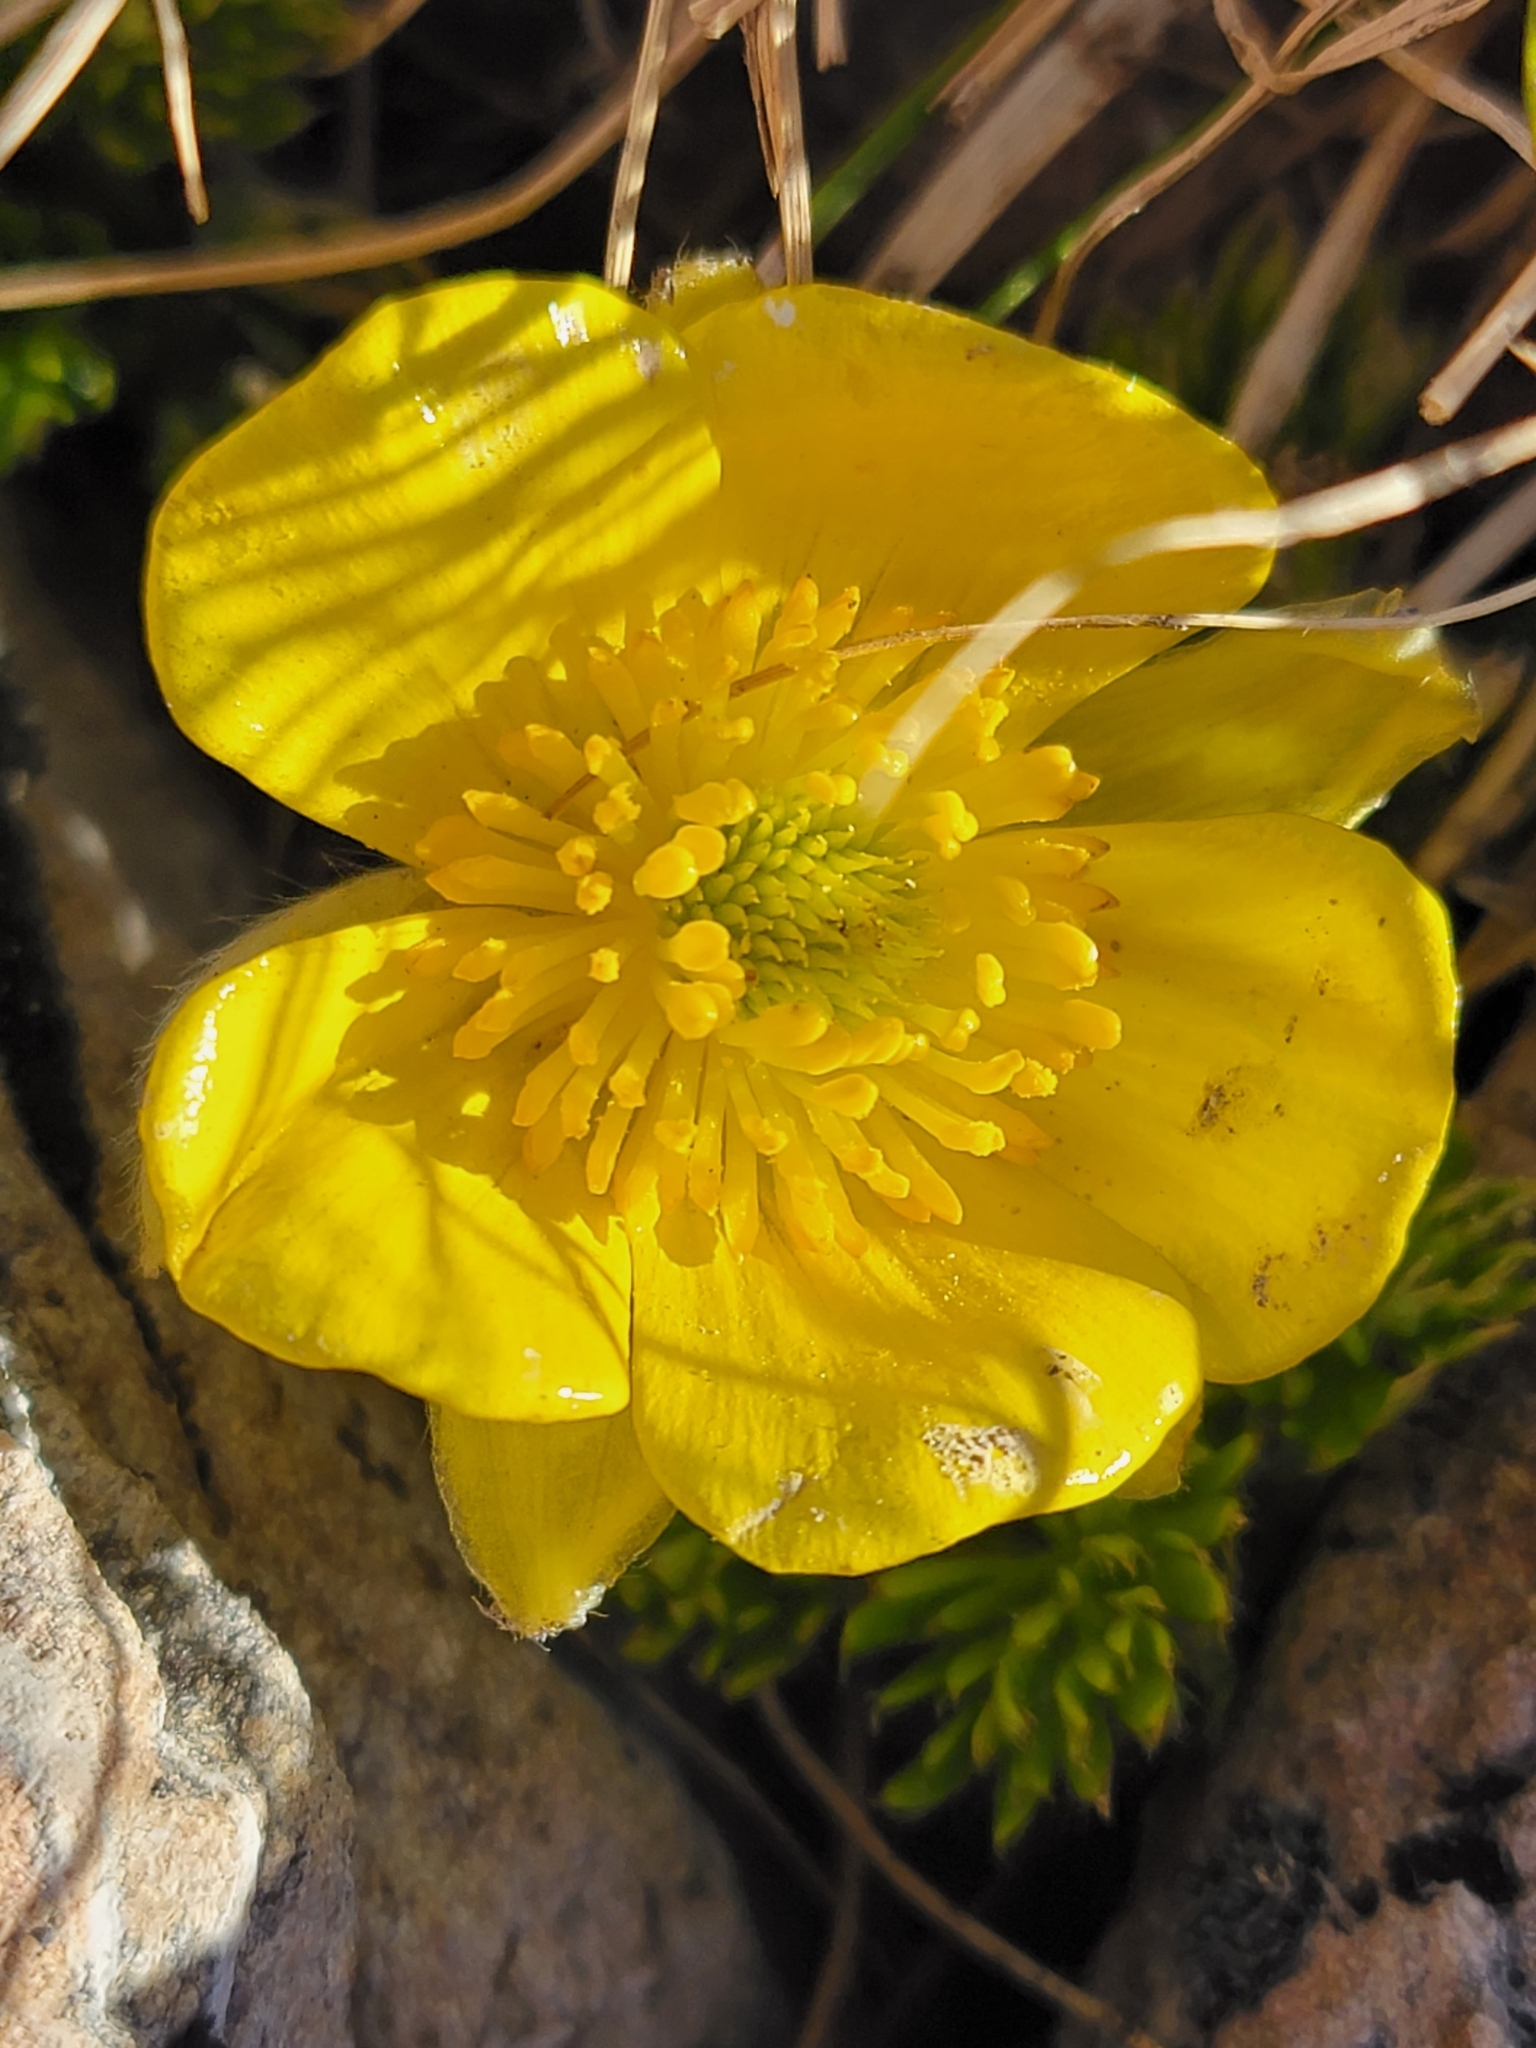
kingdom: Plantae
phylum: Tracheophyta
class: Magnoliopsida
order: Ranunculales
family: Ranunculaceae
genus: Ranunculus
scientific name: Ranunculus sericophyllus
